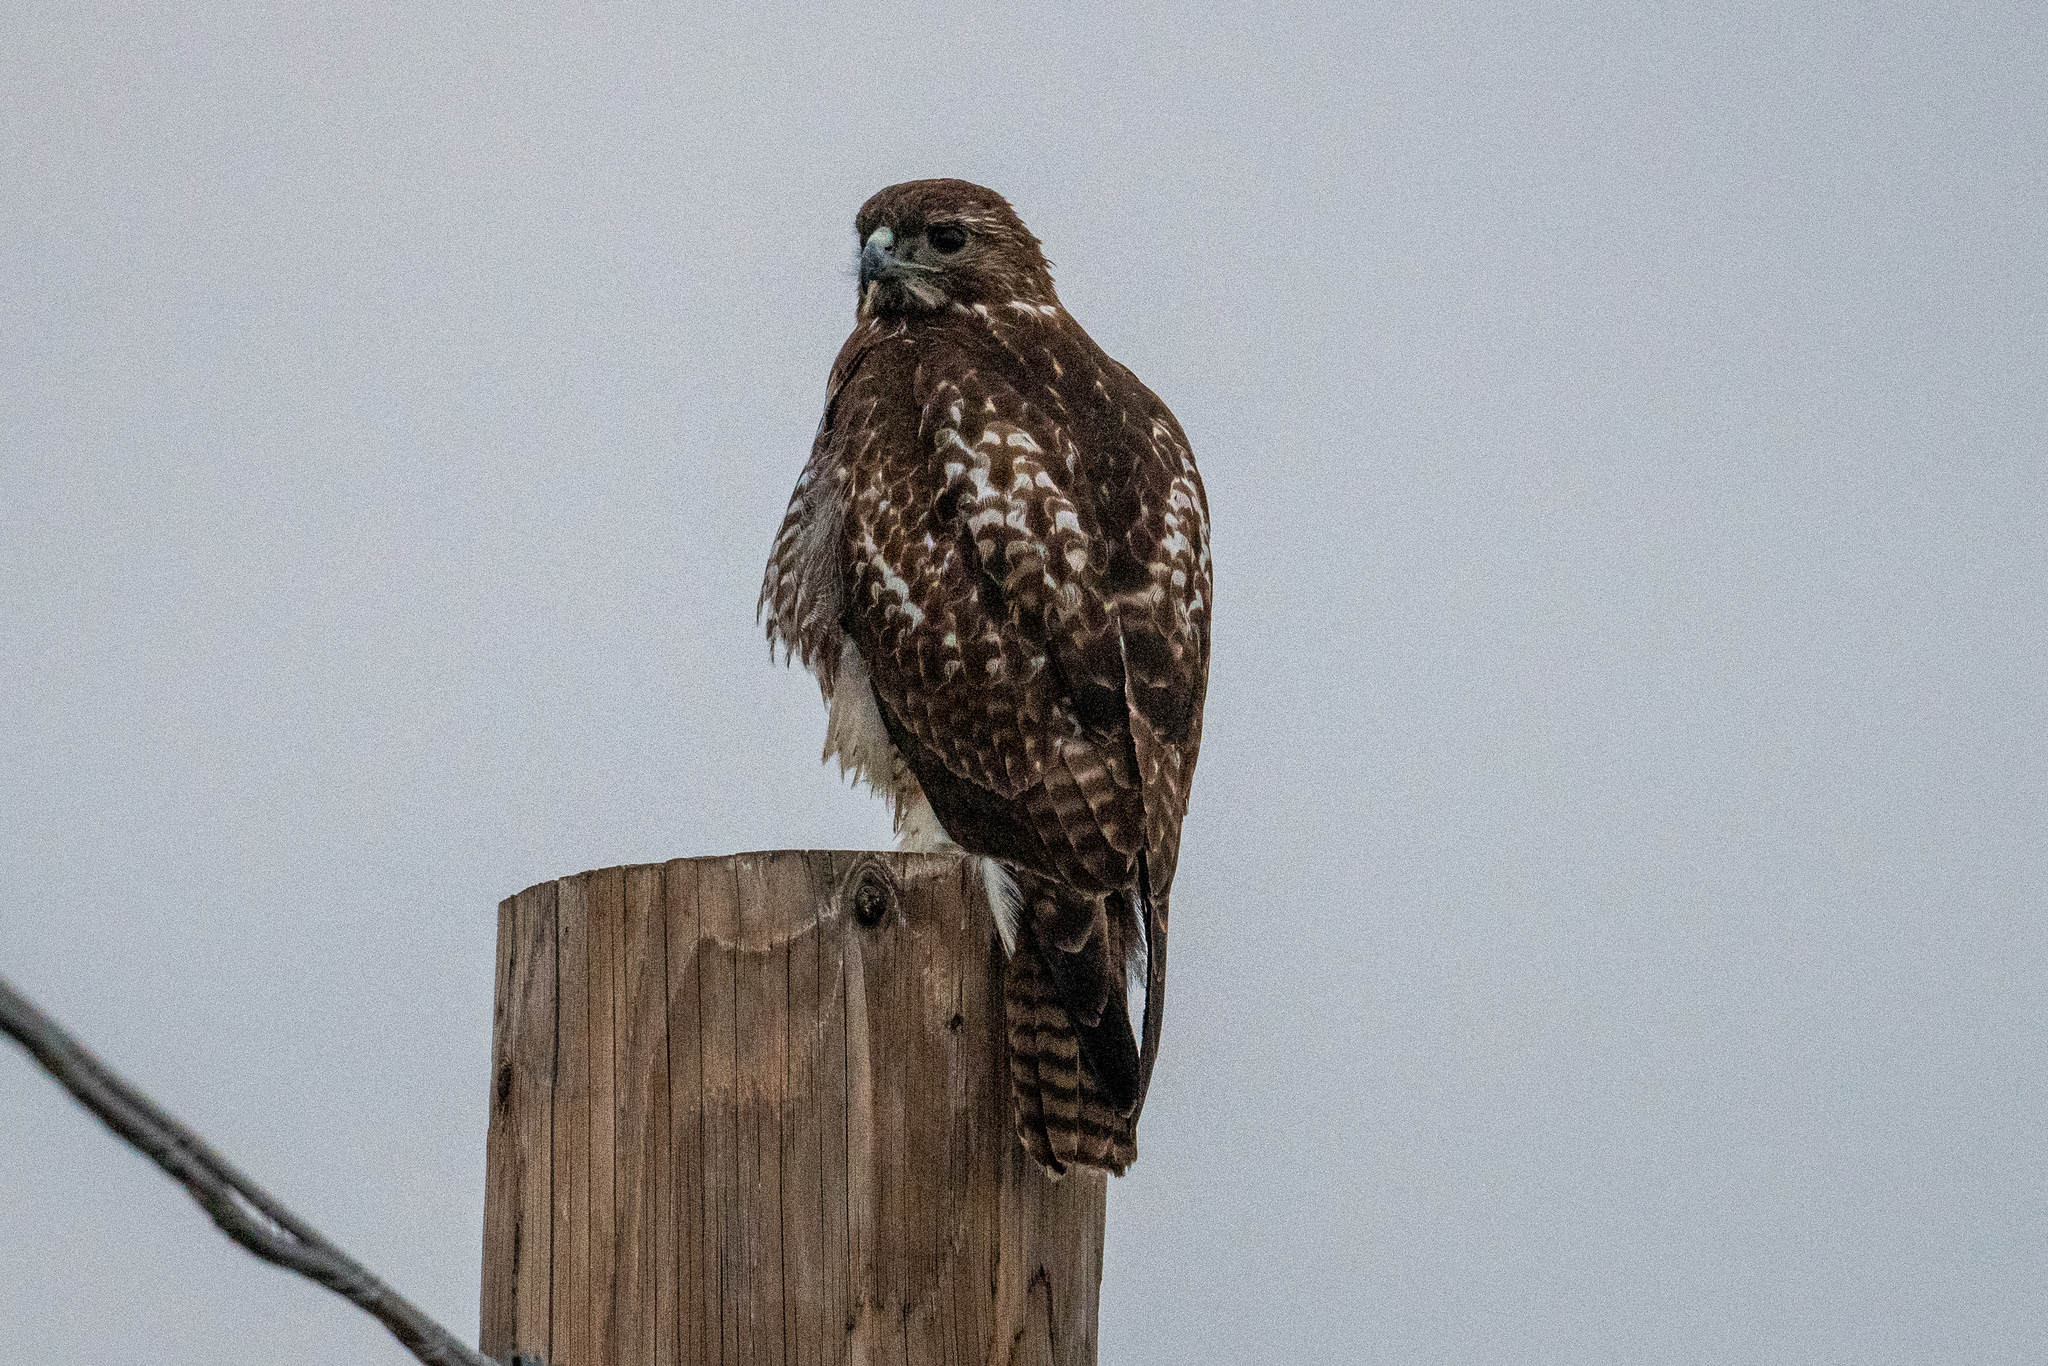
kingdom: Animalia
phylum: Chordata
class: Aves
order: Accipitriformes
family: Accipitridae
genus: Buteo
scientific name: Buteo jamaicensis
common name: Red-tailed hawk
